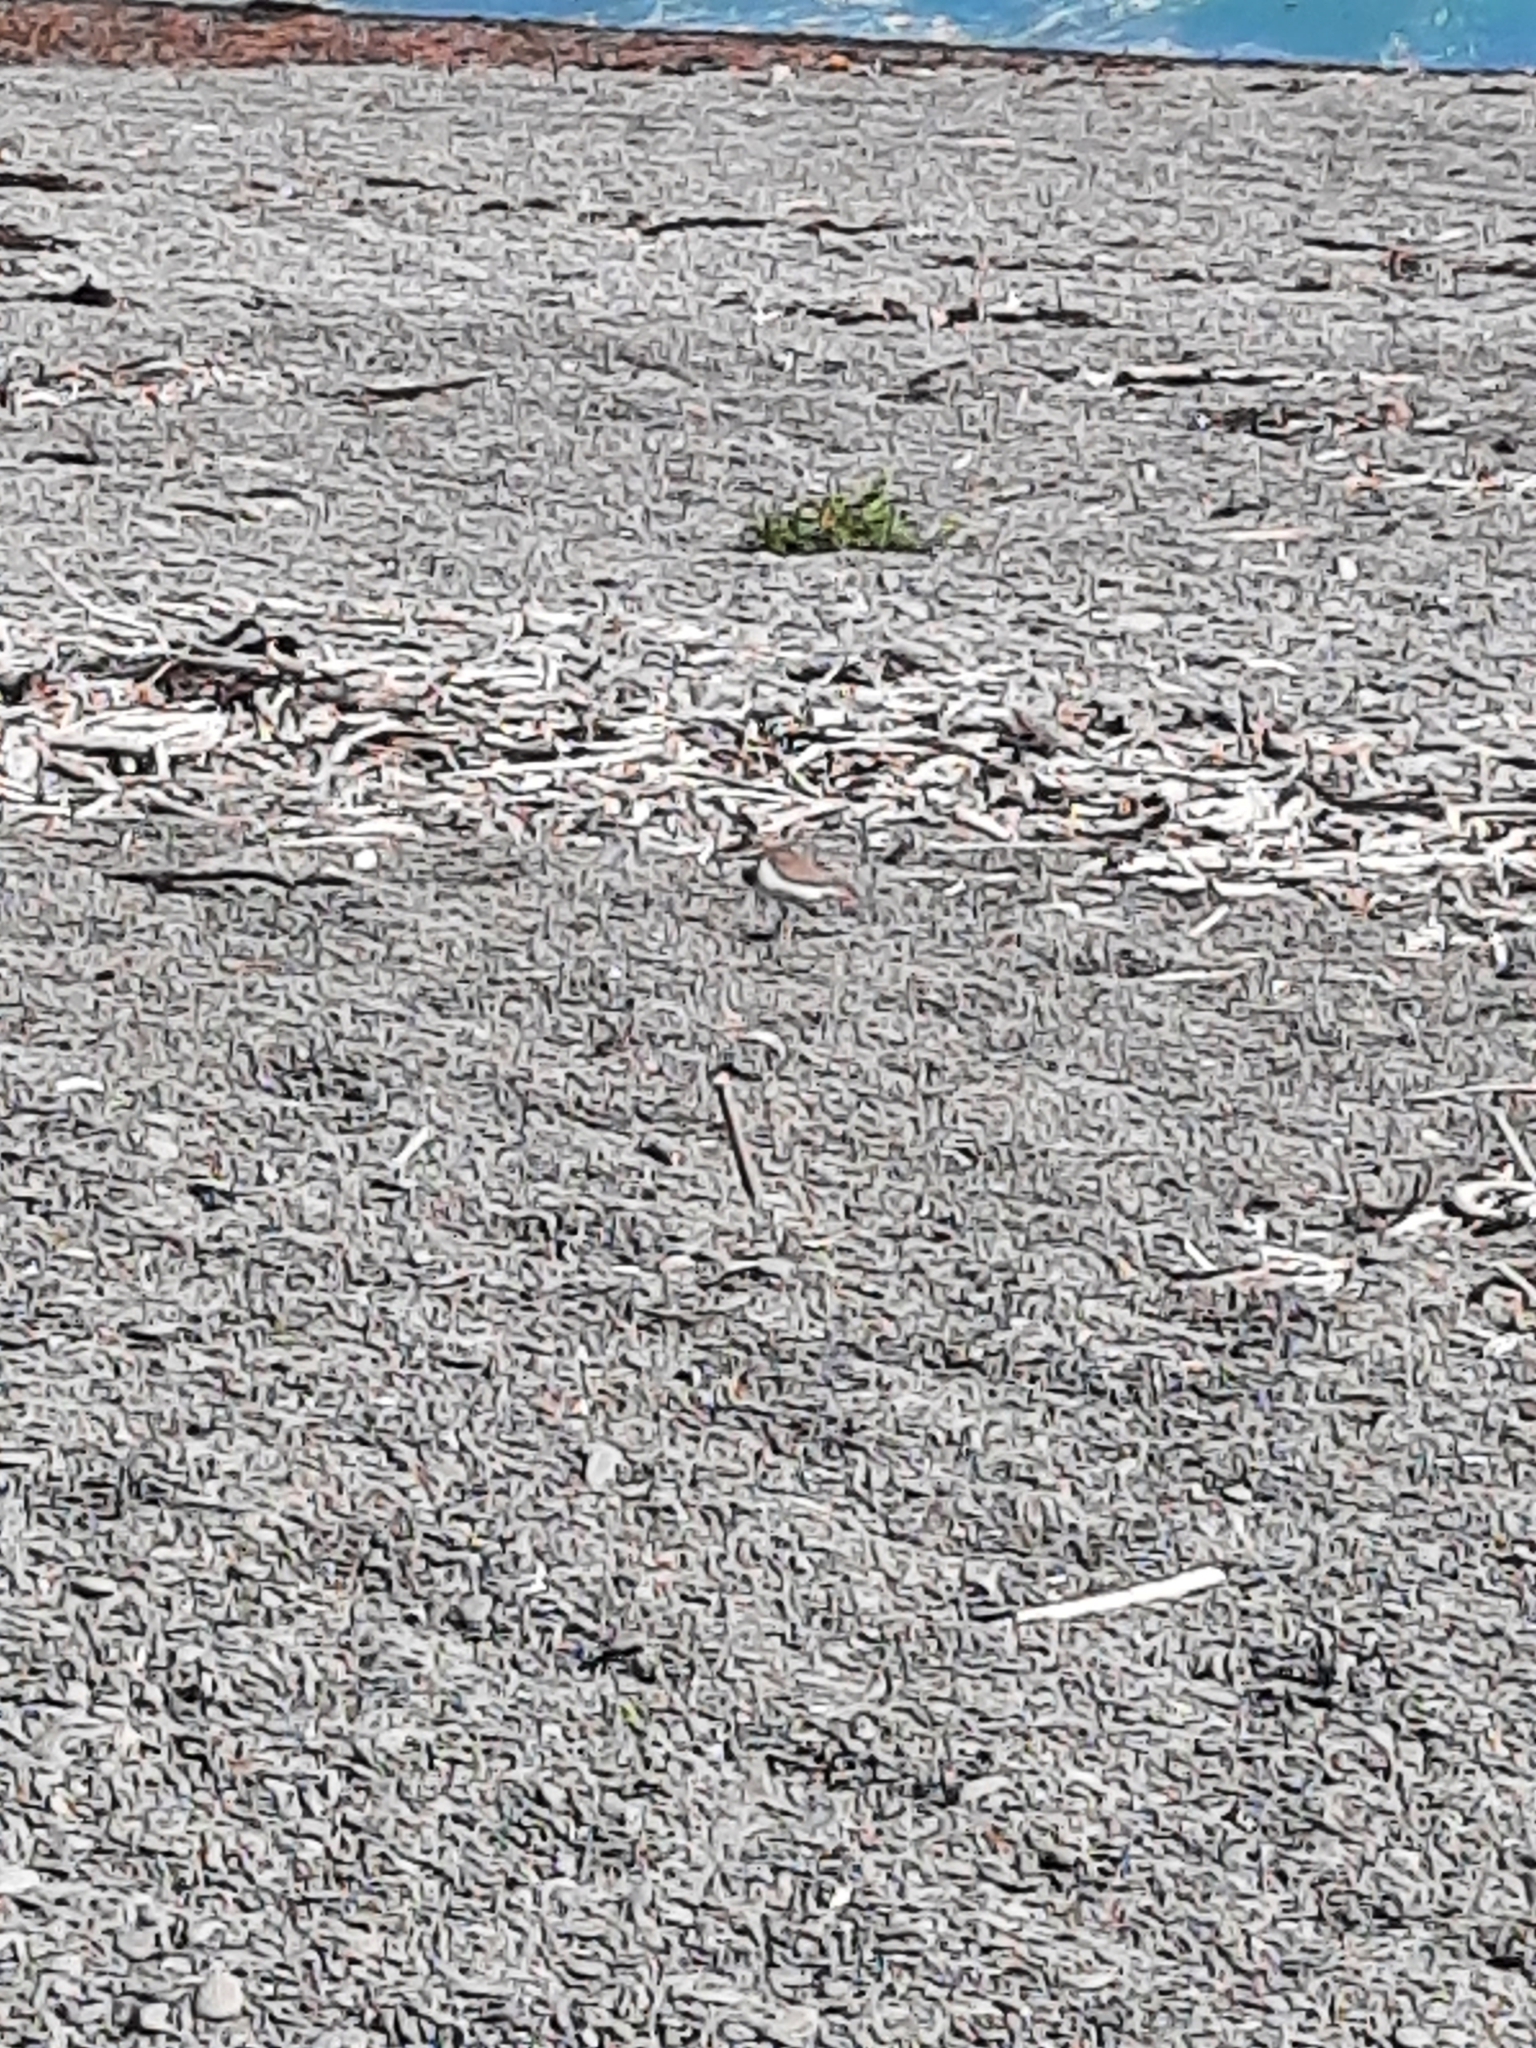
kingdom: Animalia
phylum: Chordata
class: Aves
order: Charadriiformes
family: Charadriidae
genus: Anarhynchus
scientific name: Anarhynchus
